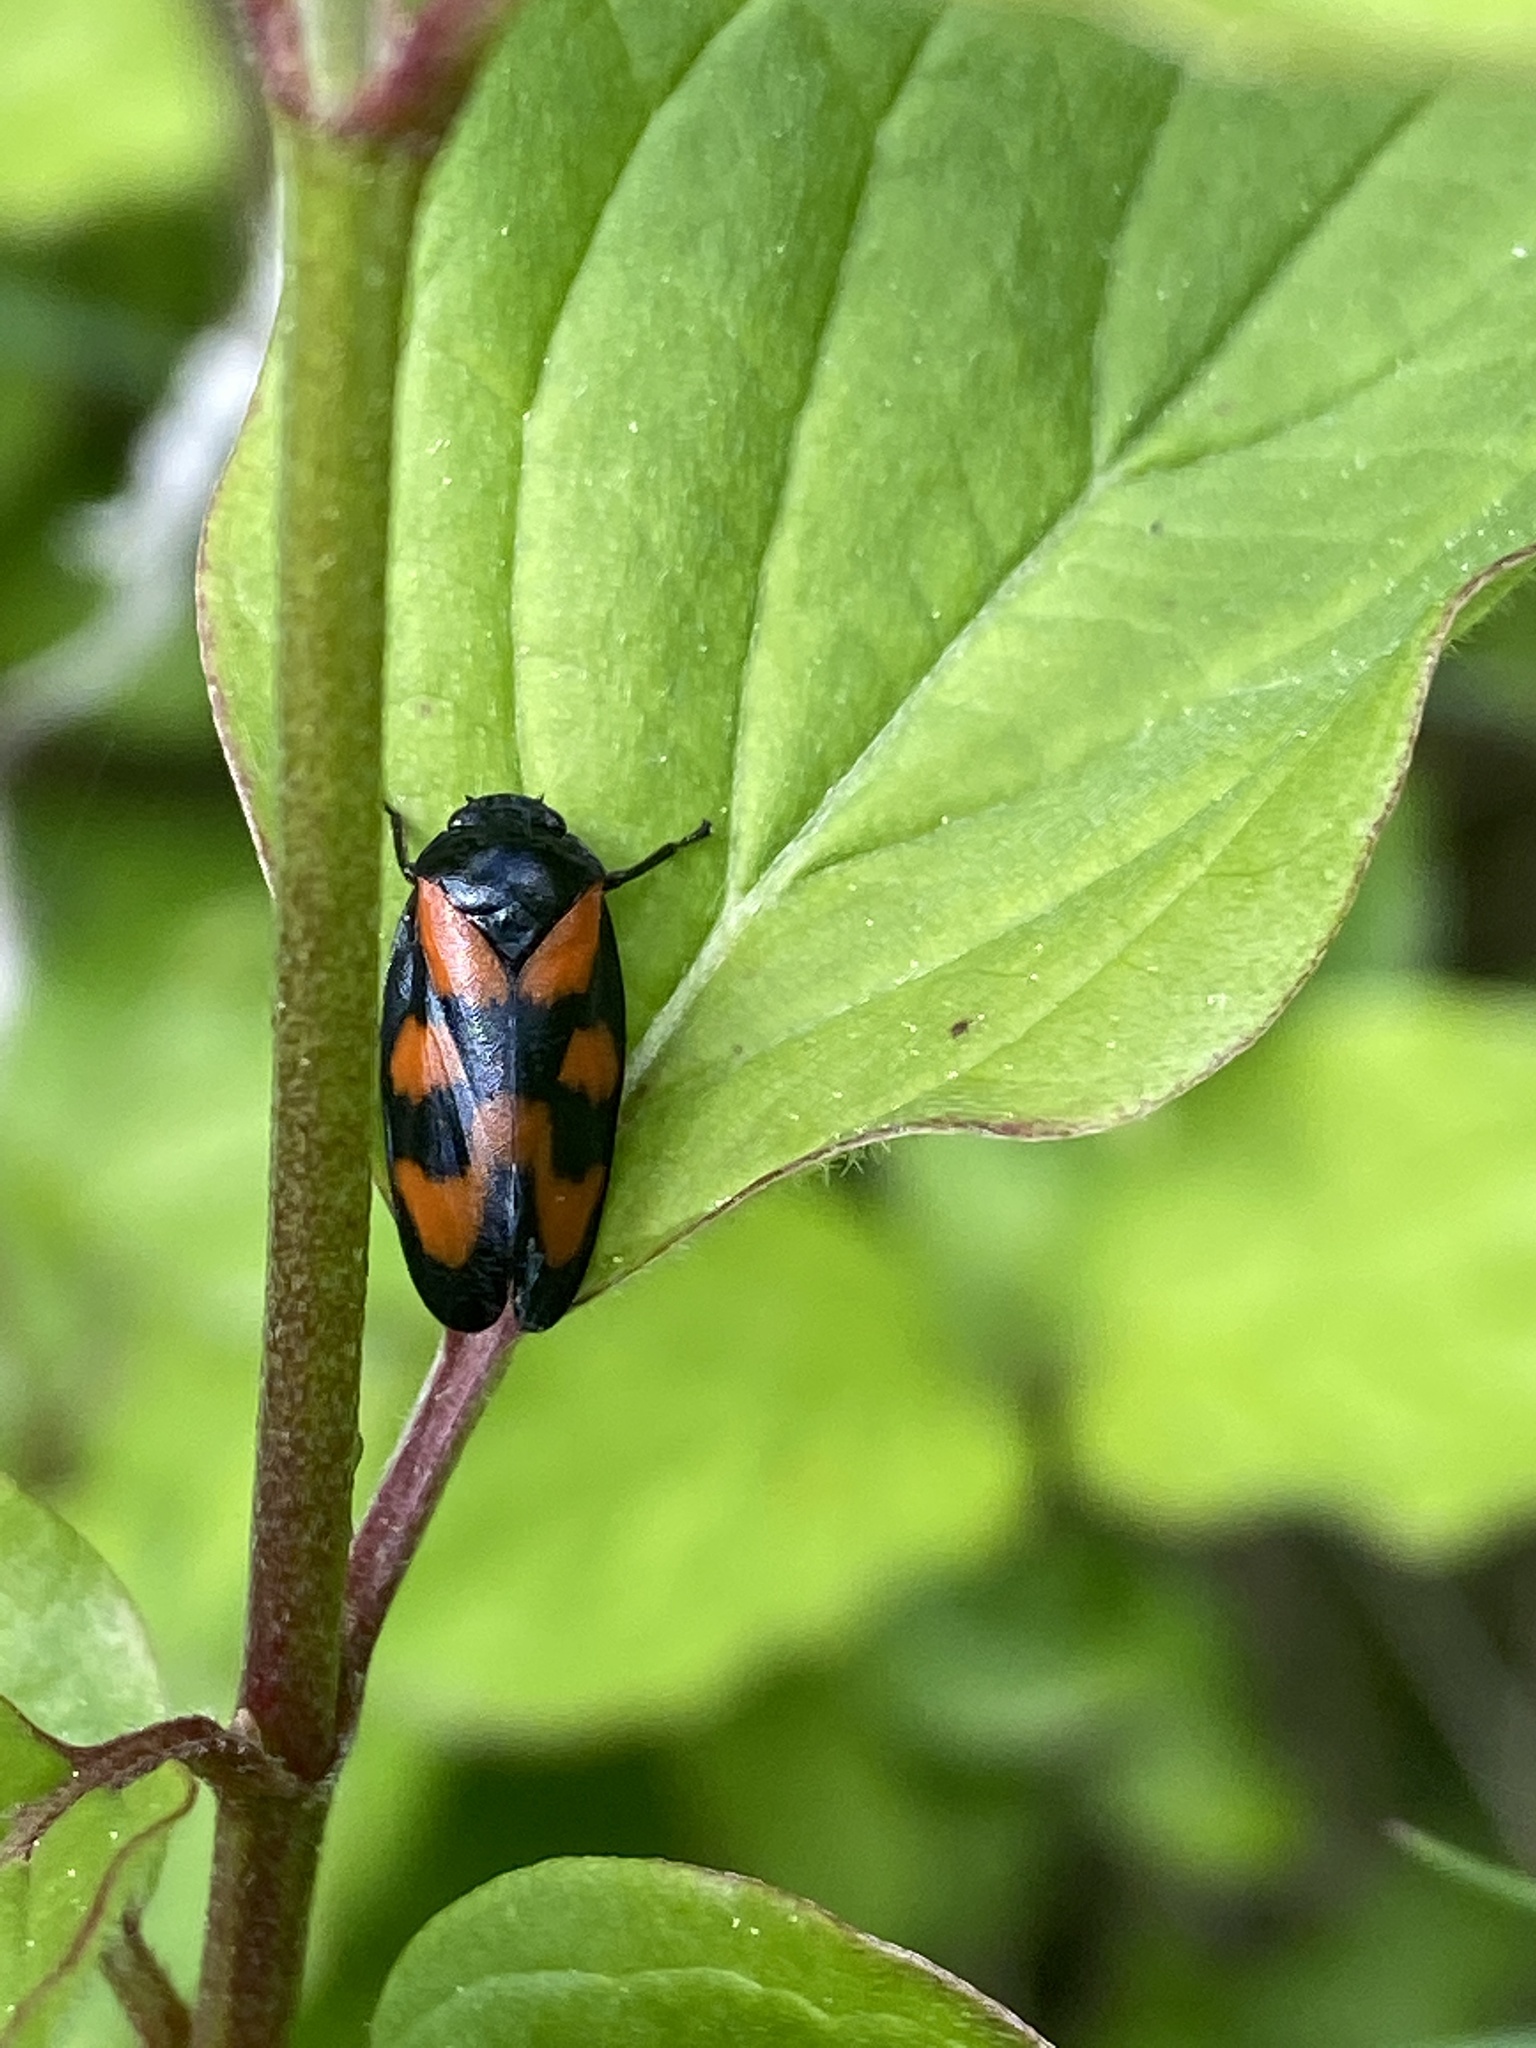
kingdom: Animalia
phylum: Arthropoda
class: Insecta
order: Hemiptera
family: Cercopidae
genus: Cercopis
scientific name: Cercopis vulnerata
